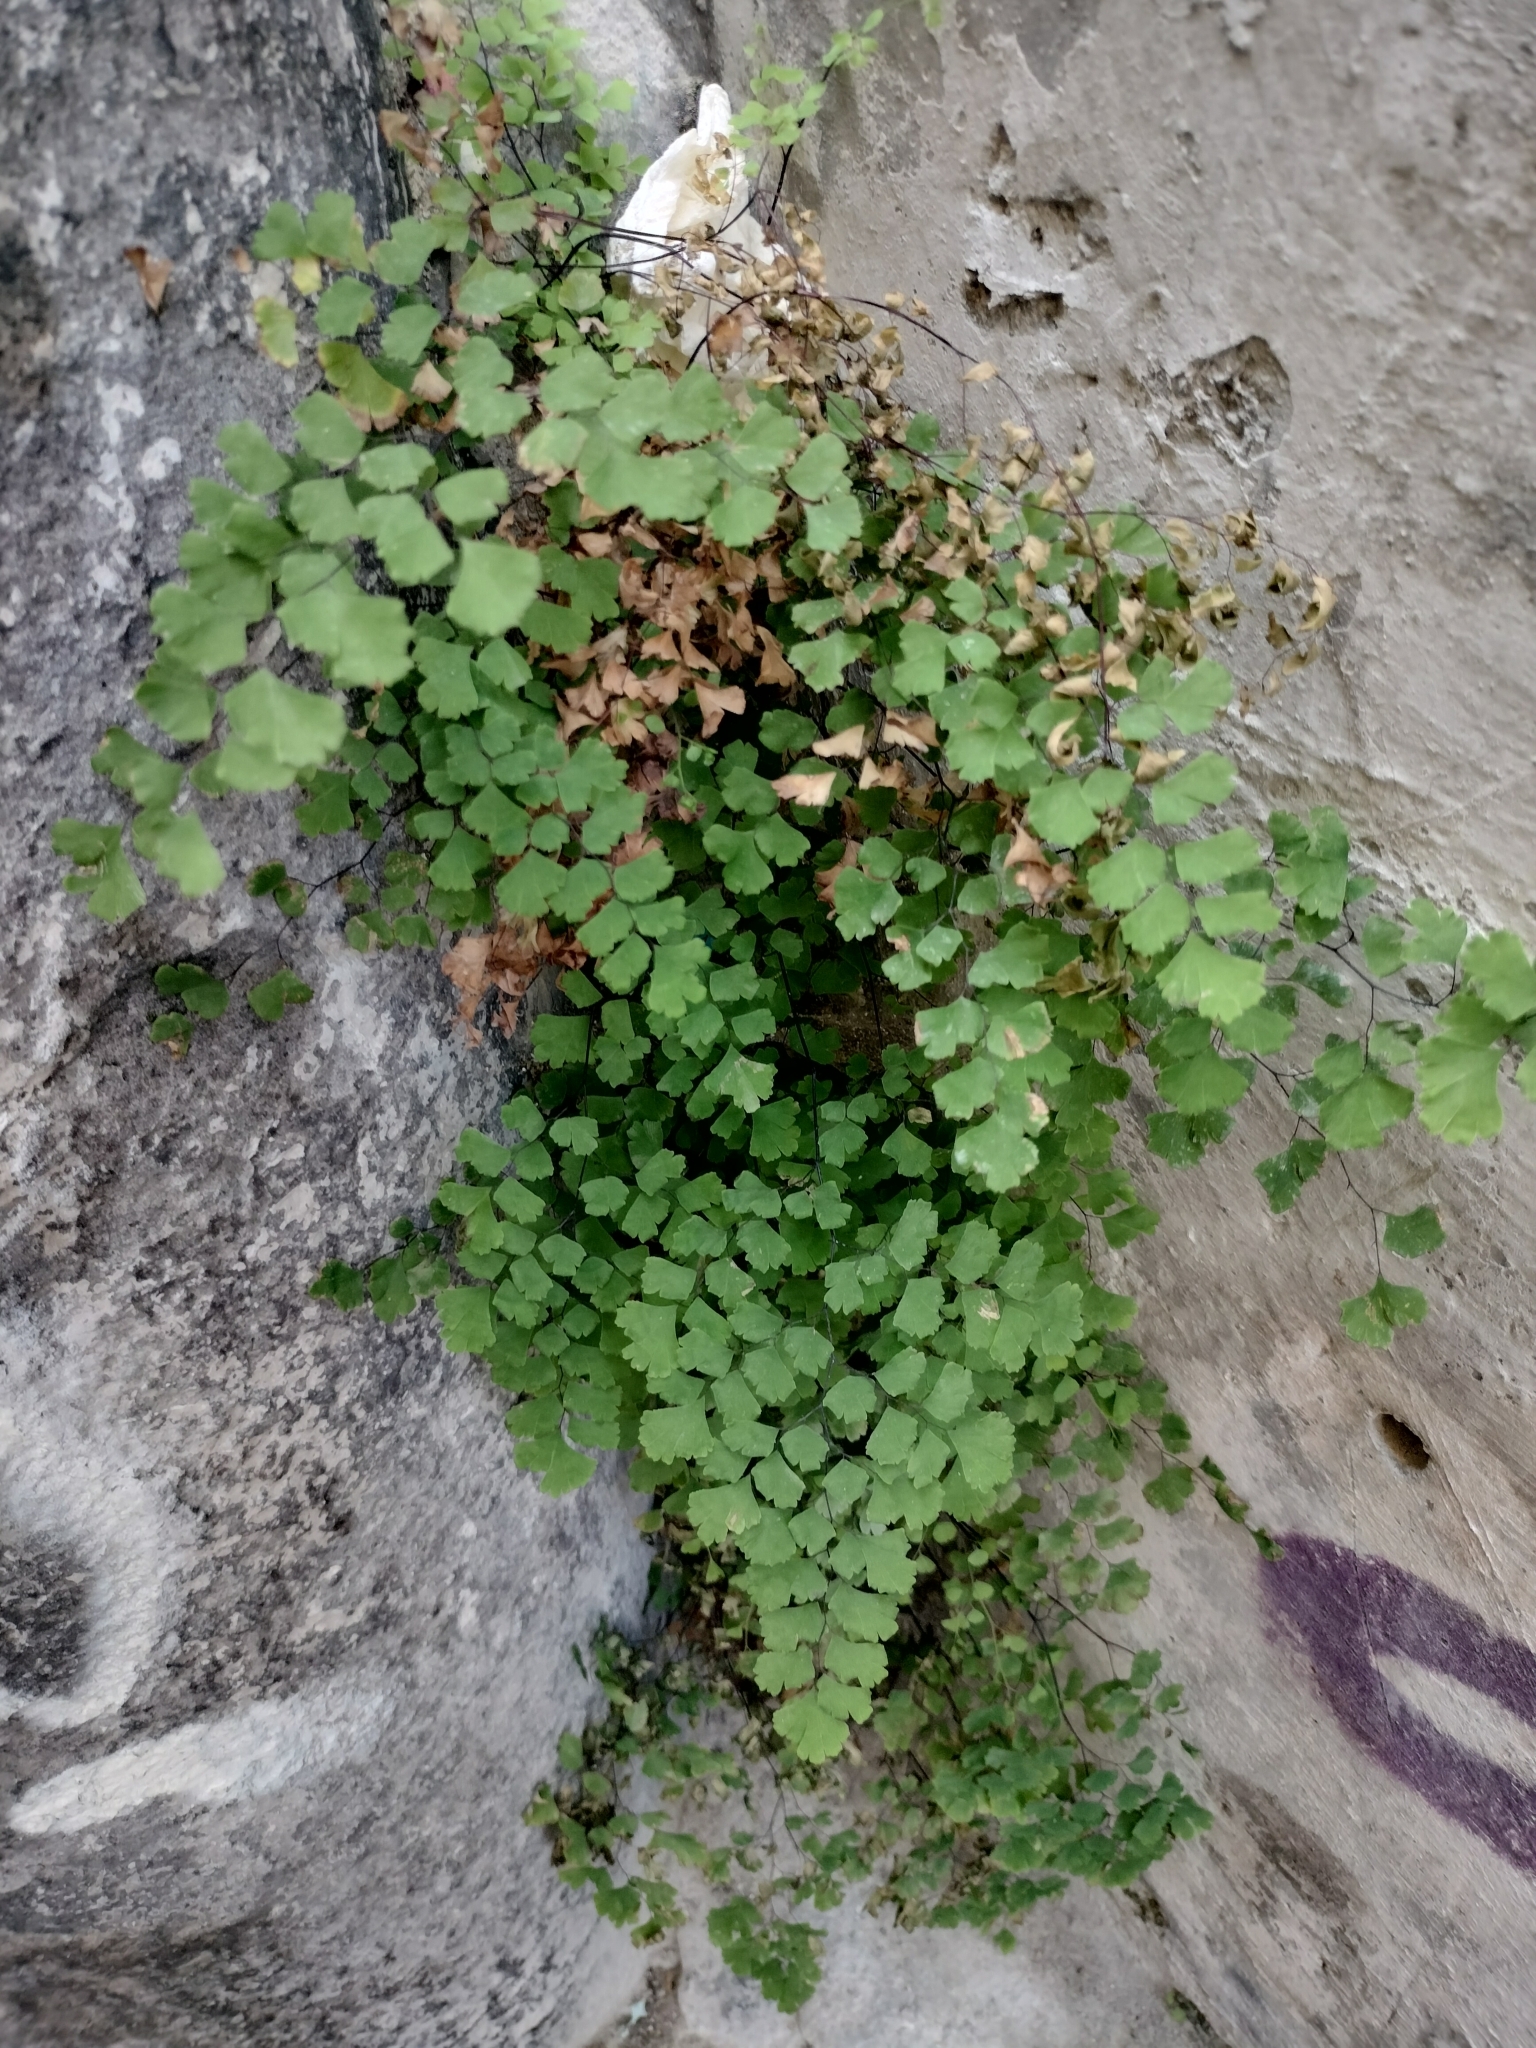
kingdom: Plantae
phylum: Tracheophyta
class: Polypodiopsida
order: Polypodiales
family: Pteridaceae
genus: Adiantum
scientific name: Adiantum capillus-veneris
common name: Maidenhair fern
